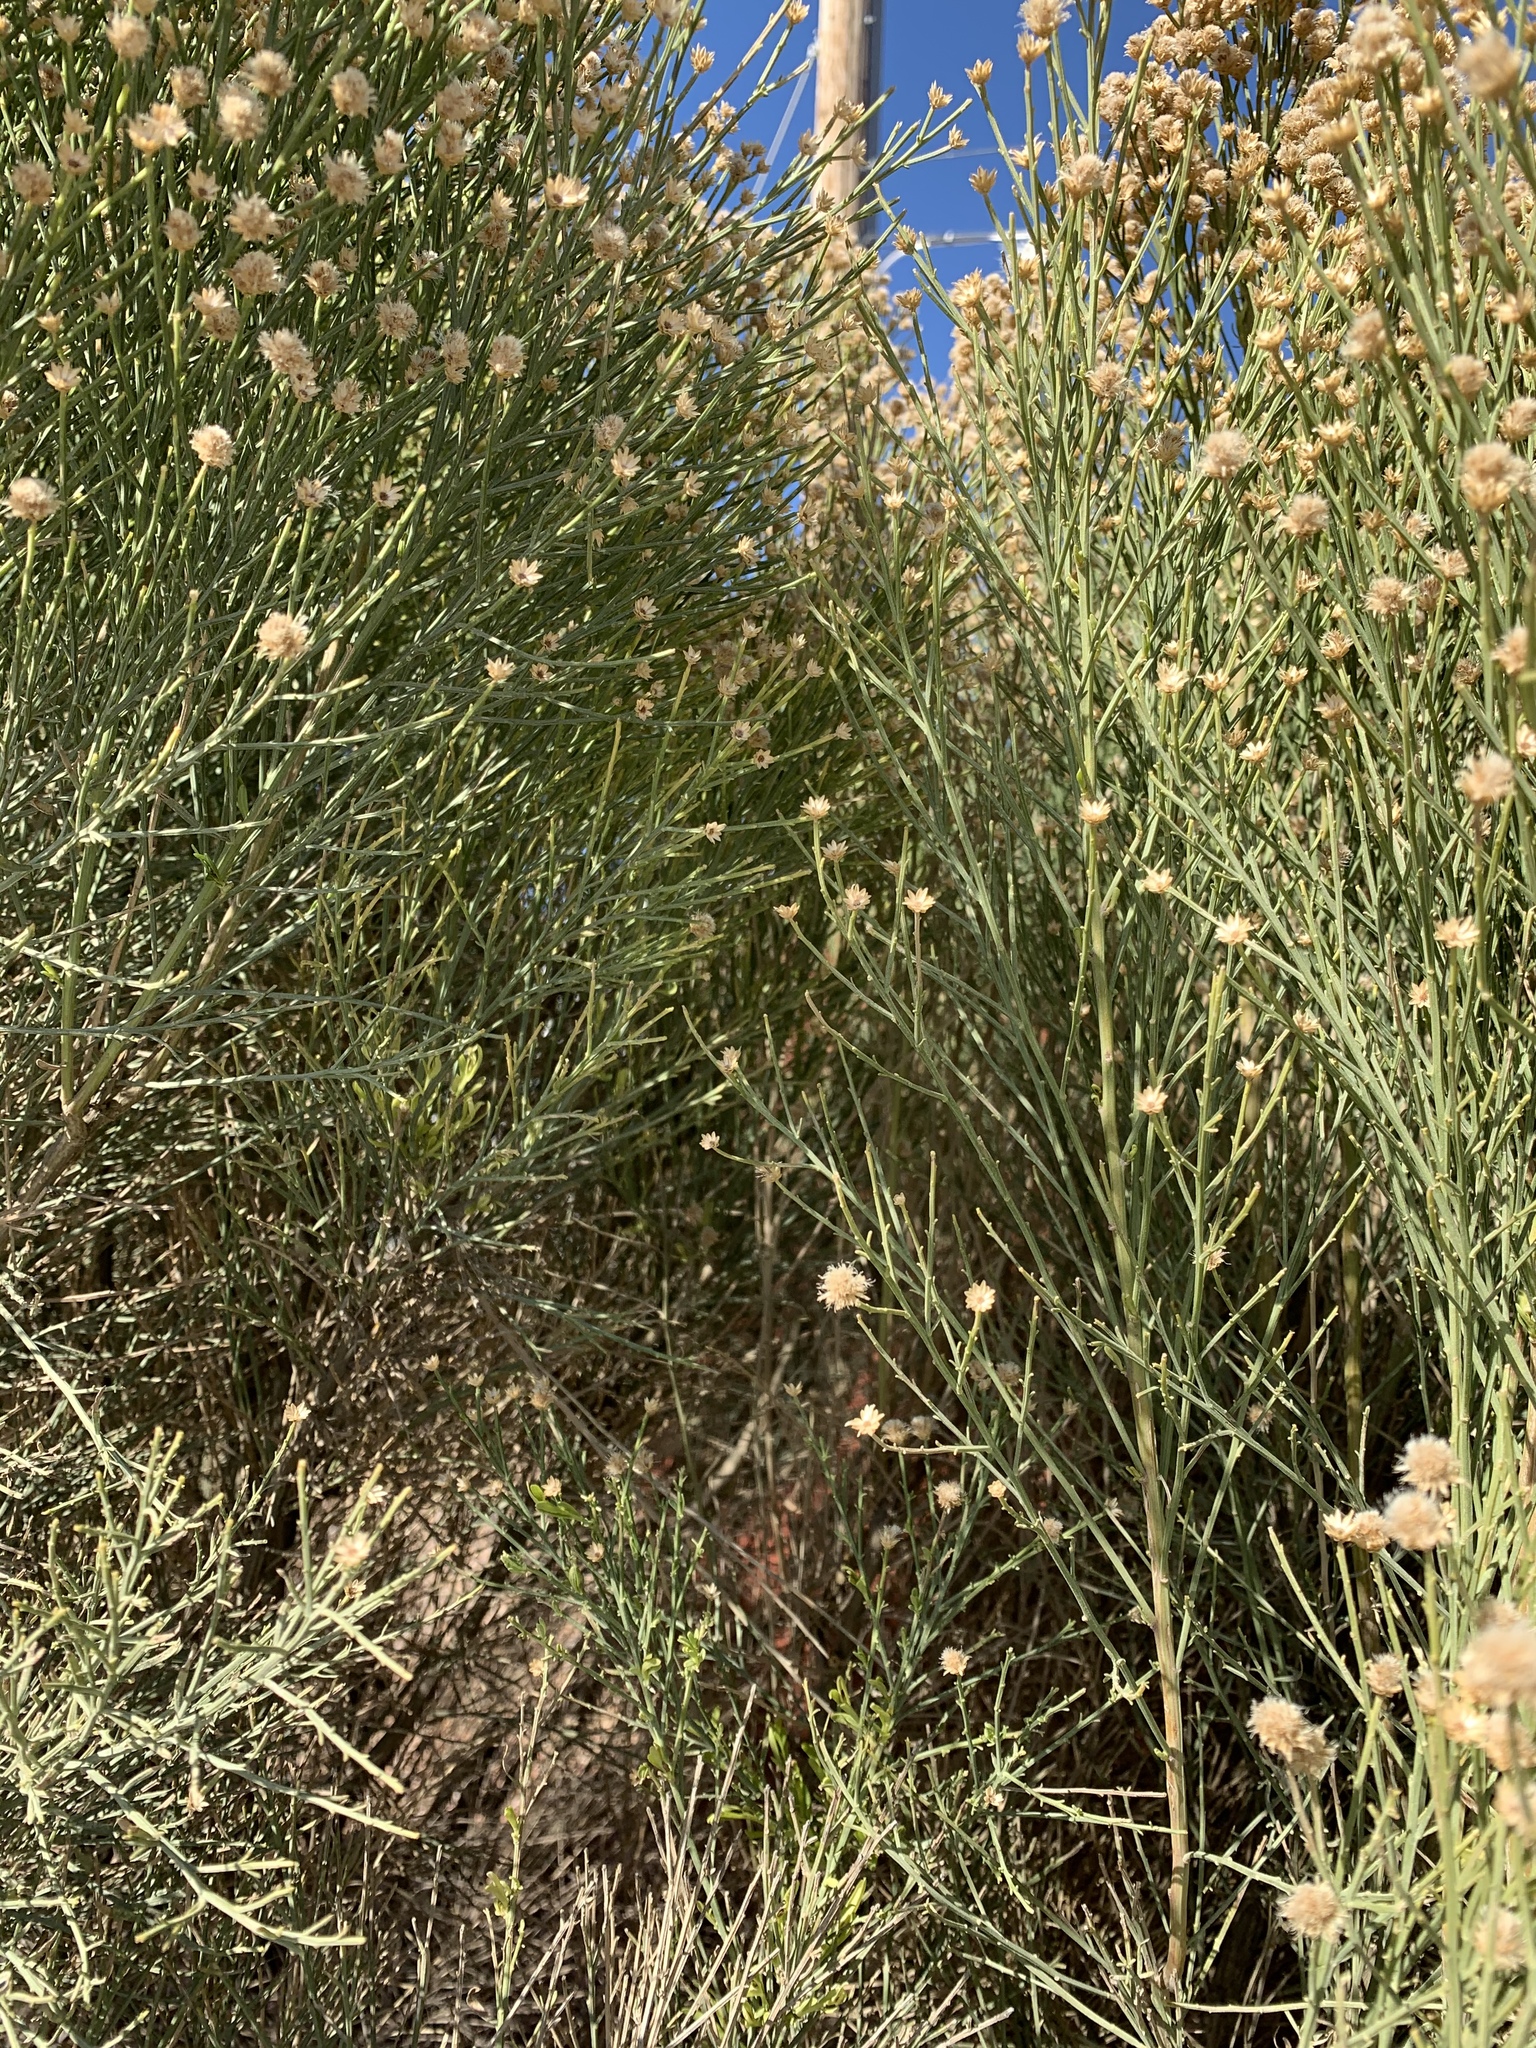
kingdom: Plantae
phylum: Tracheophyta
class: Magnoliopsida
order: Asterales
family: Asteraceae
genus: Baccharis
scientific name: Baccharis sarothroides
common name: Desert-broom
